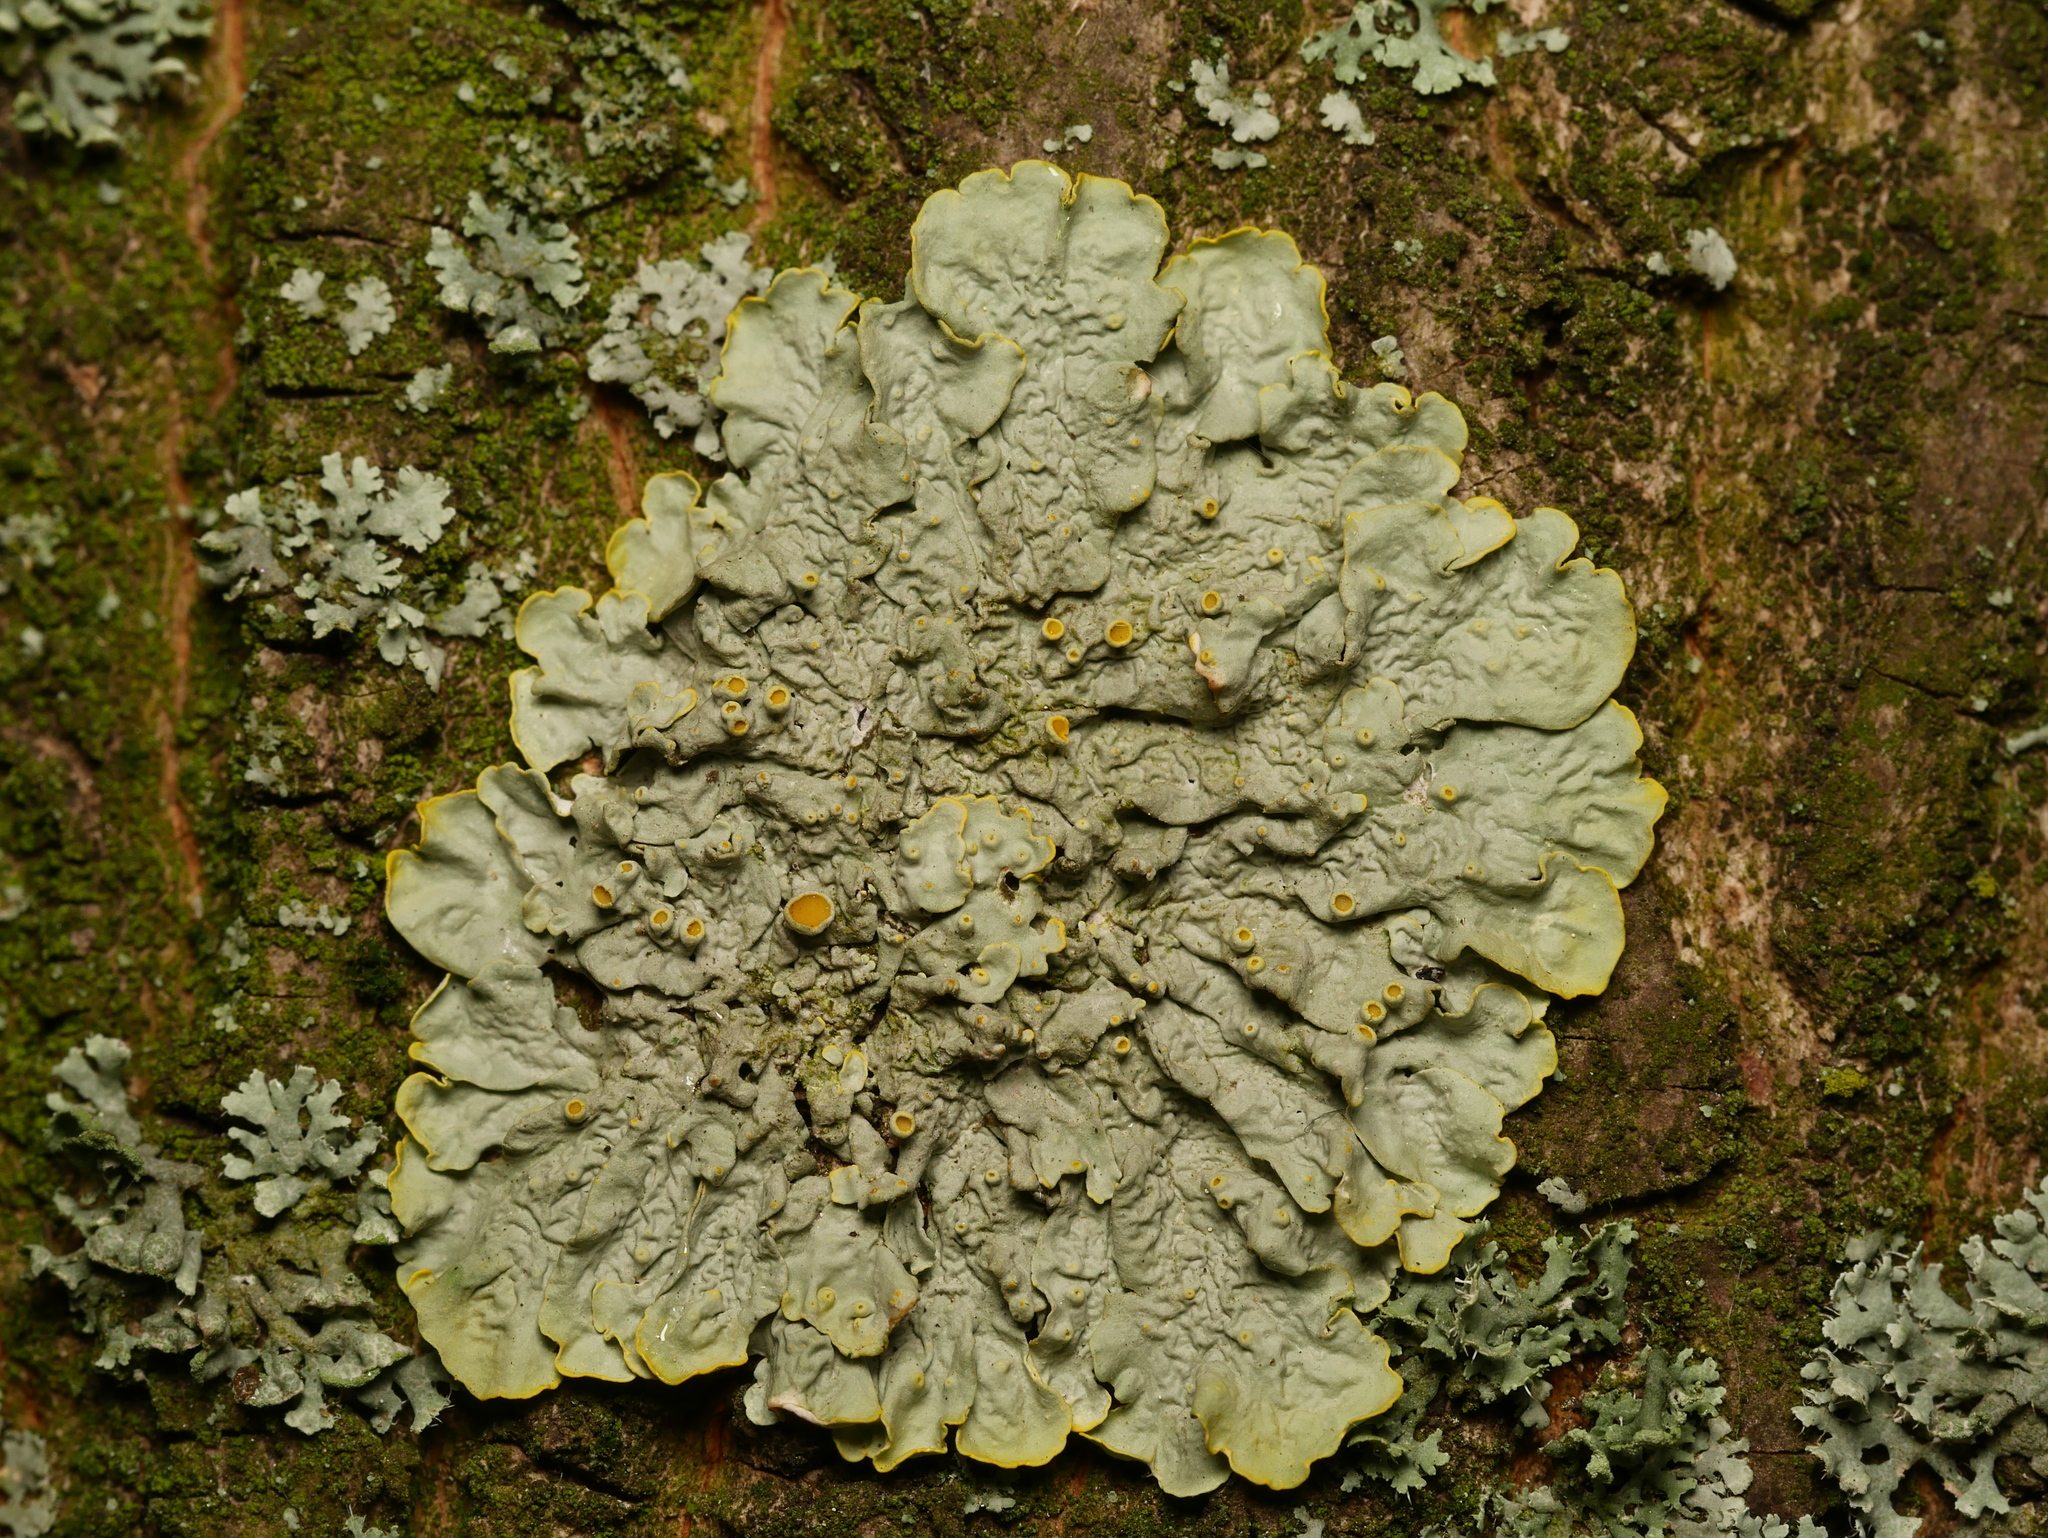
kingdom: Fungi
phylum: Ascomycota
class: Lecanoromycetes
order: Teloschistales
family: Teloschistaceae
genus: Xanthoria
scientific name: Xanthoria parietina
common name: Common orange lichen
